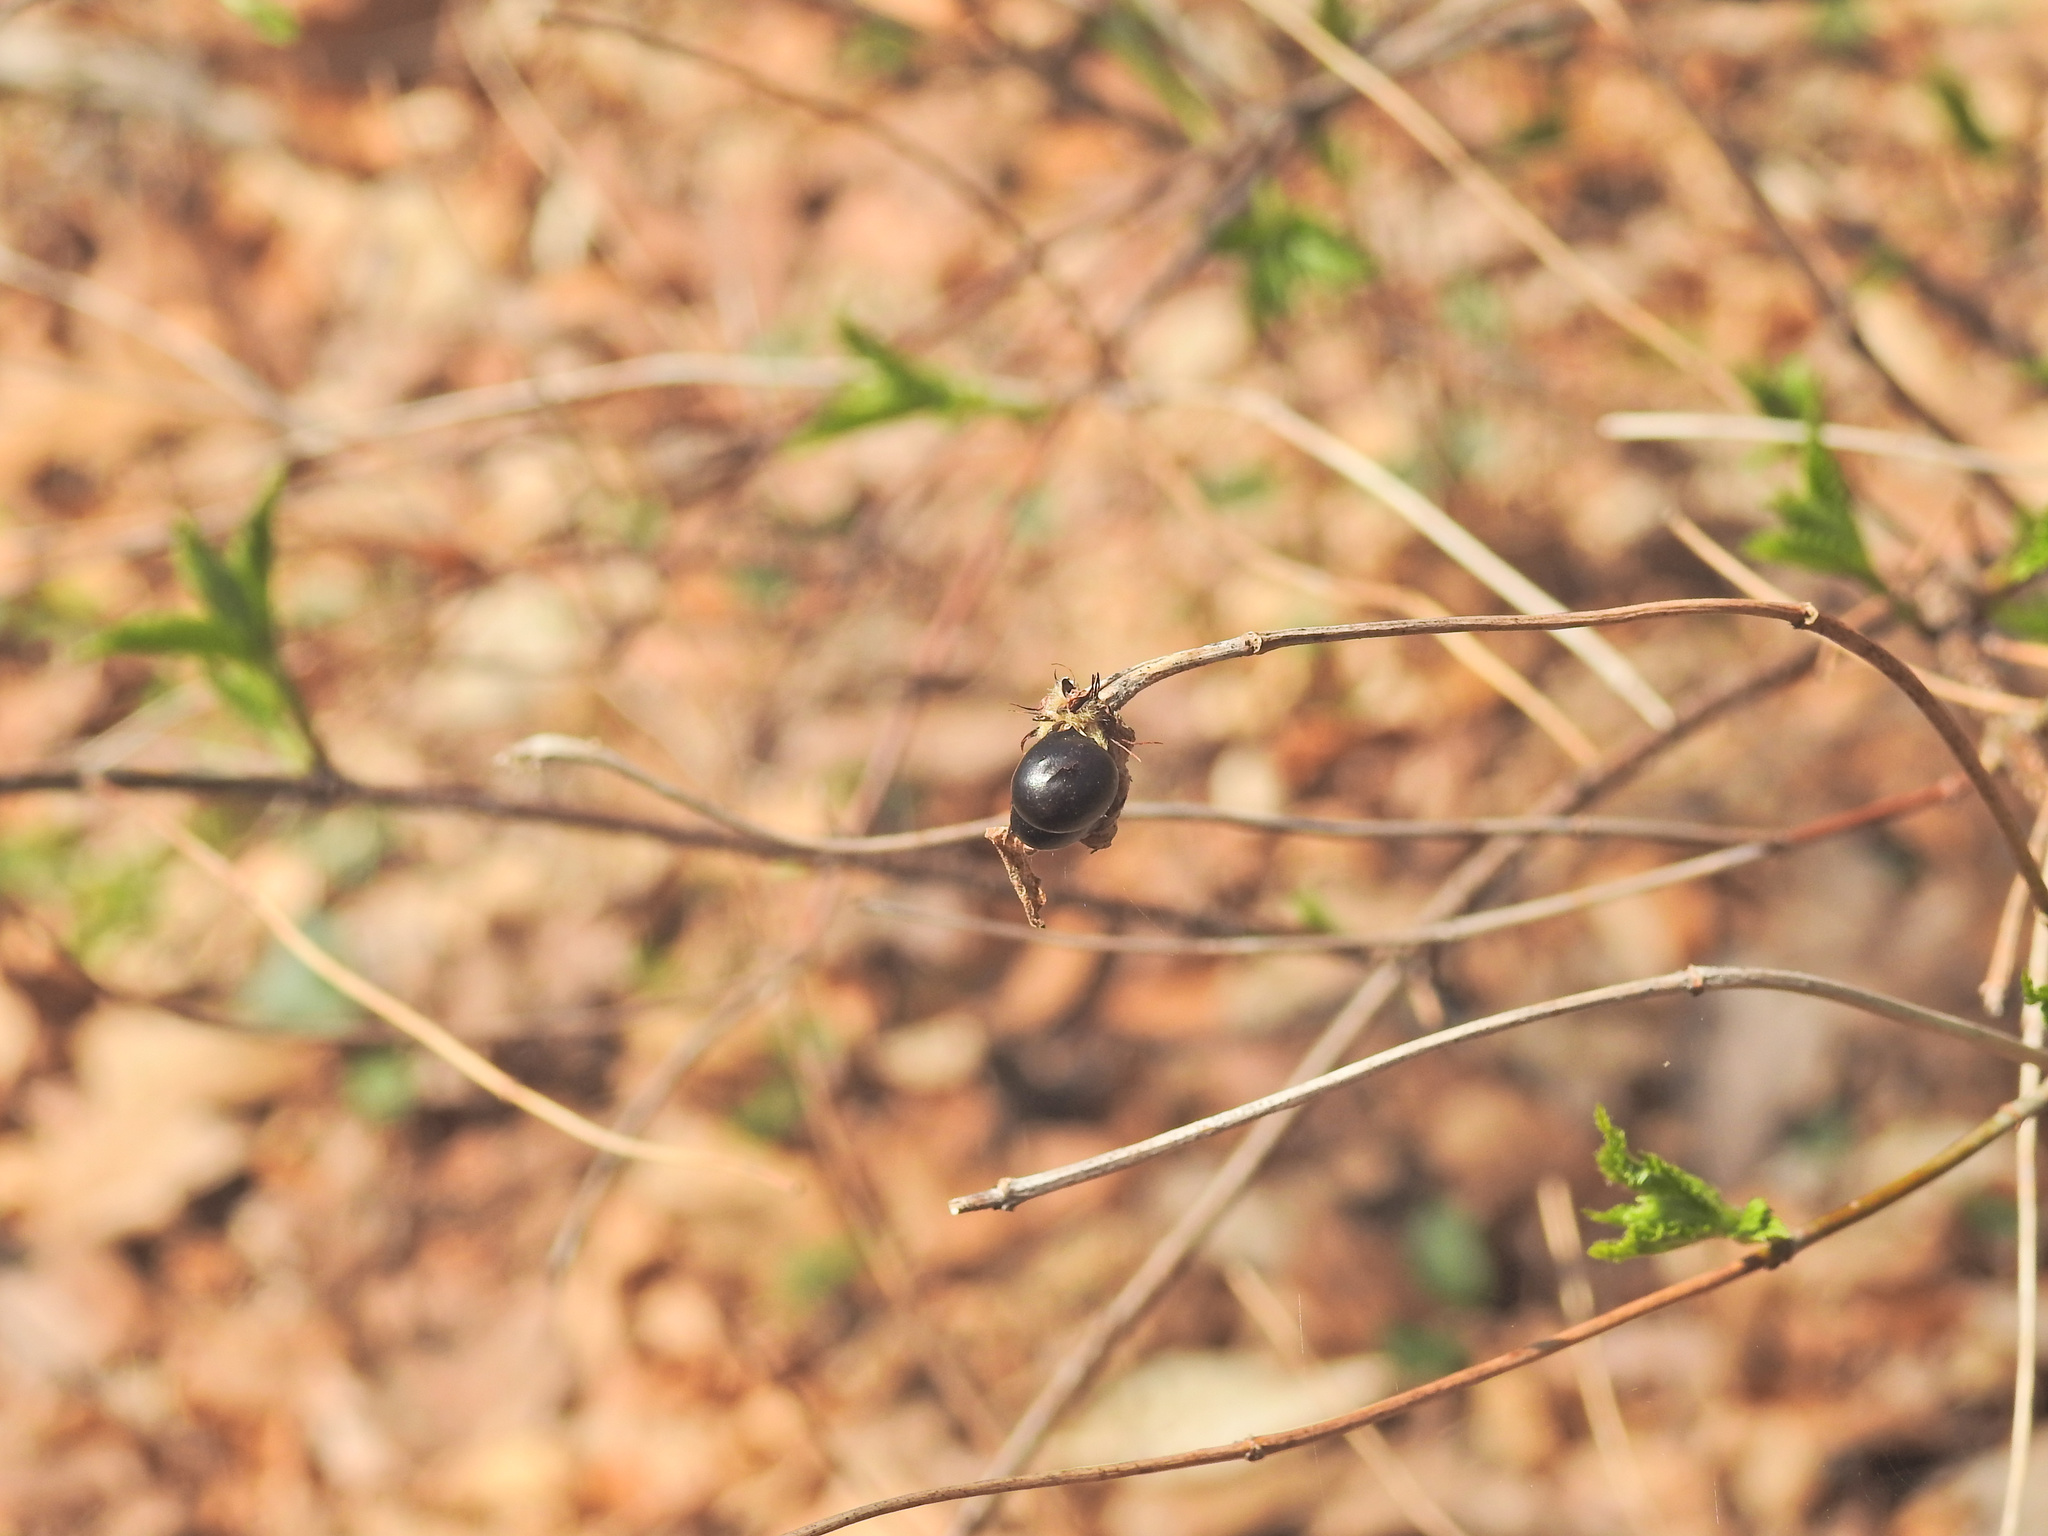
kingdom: Plantae
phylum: Tracheophyta
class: Magnoliopsida
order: Rosales
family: Rosaceae
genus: Rhodotypos
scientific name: Rhodotypos scandens
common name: Jetbead
